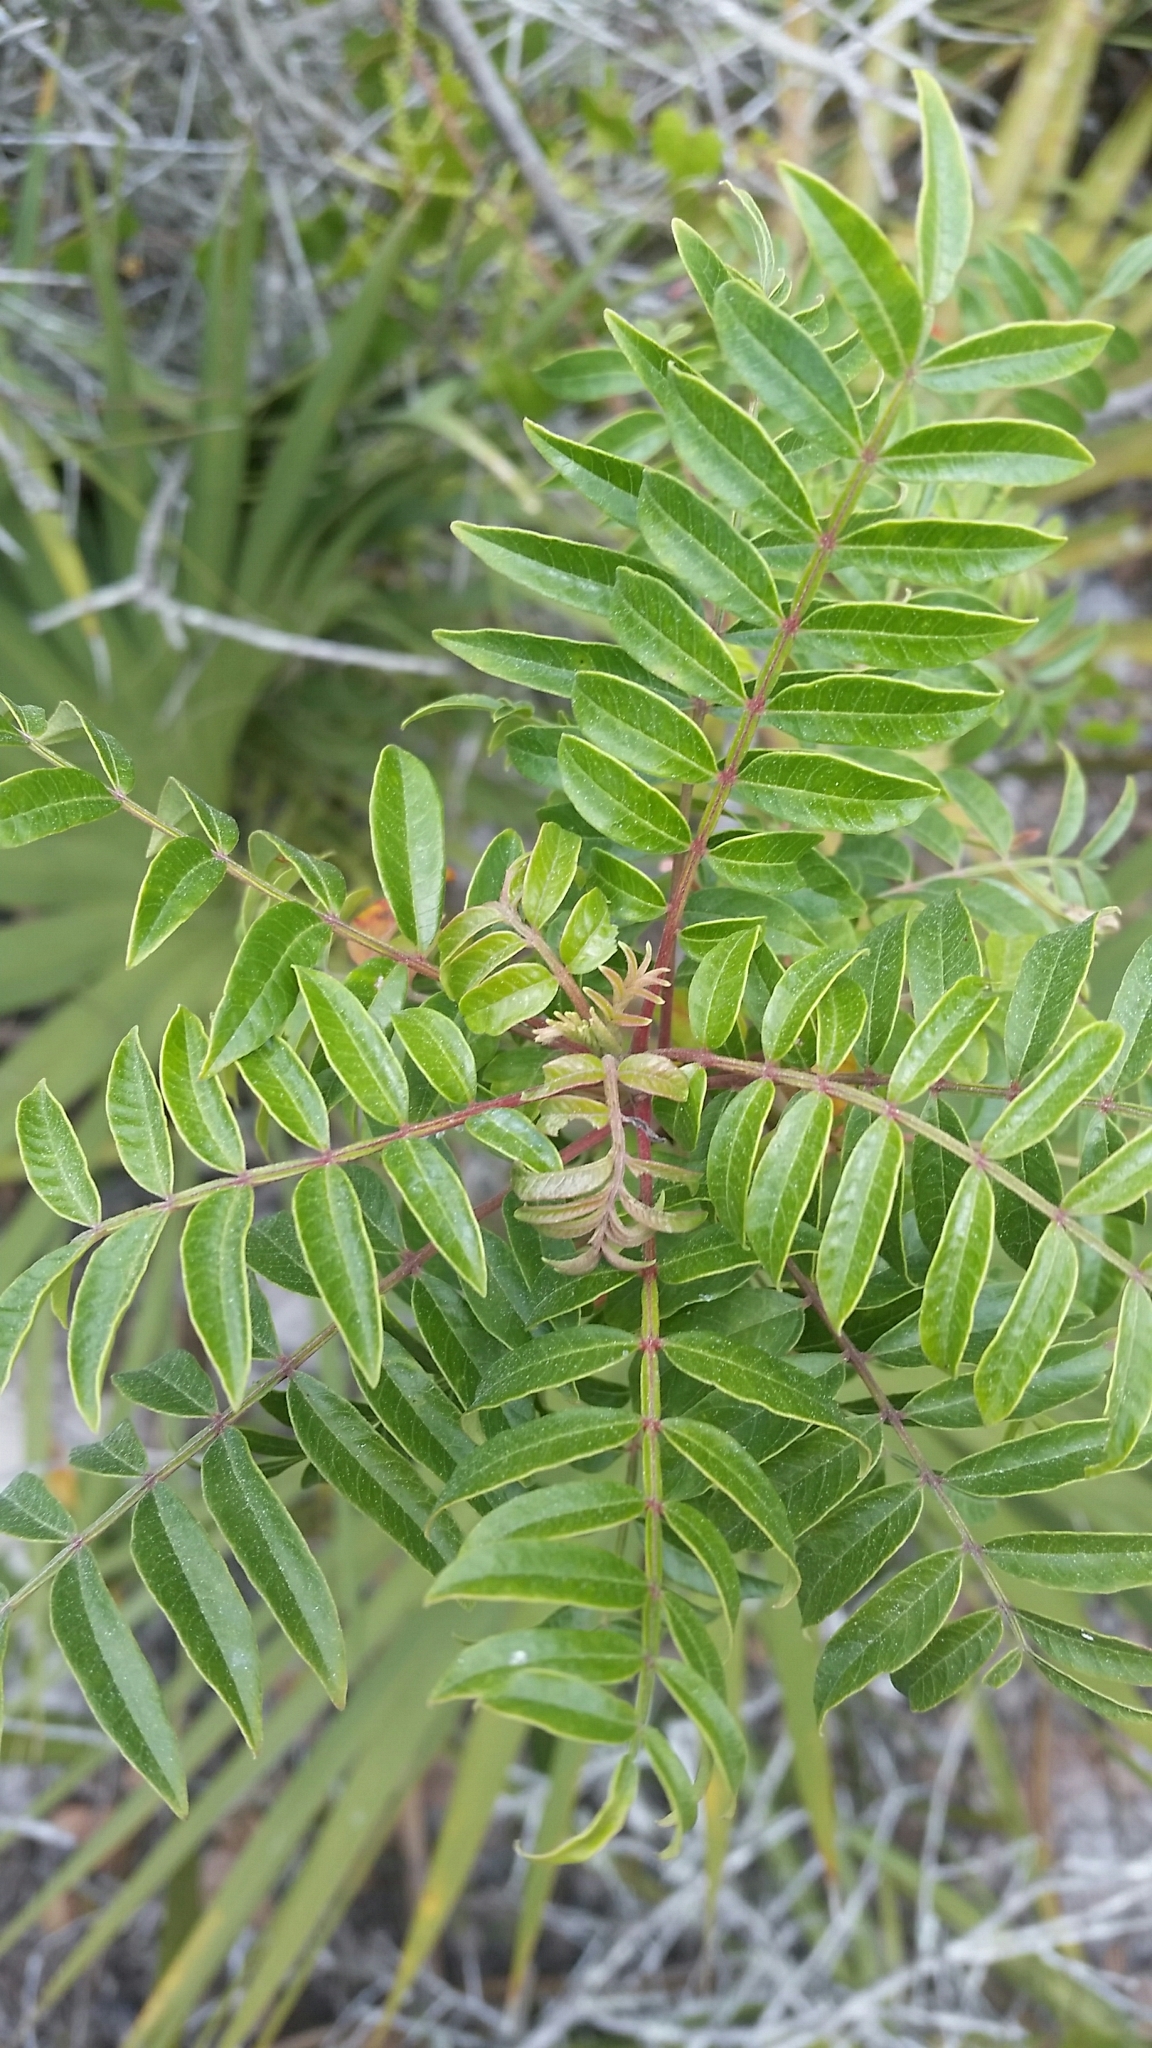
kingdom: Plantae
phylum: Tracheophyta
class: Magnoliopsida
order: Sapindales
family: Anacardiaceae
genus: Rhus
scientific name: Rhus copallina
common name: Shining sumac
